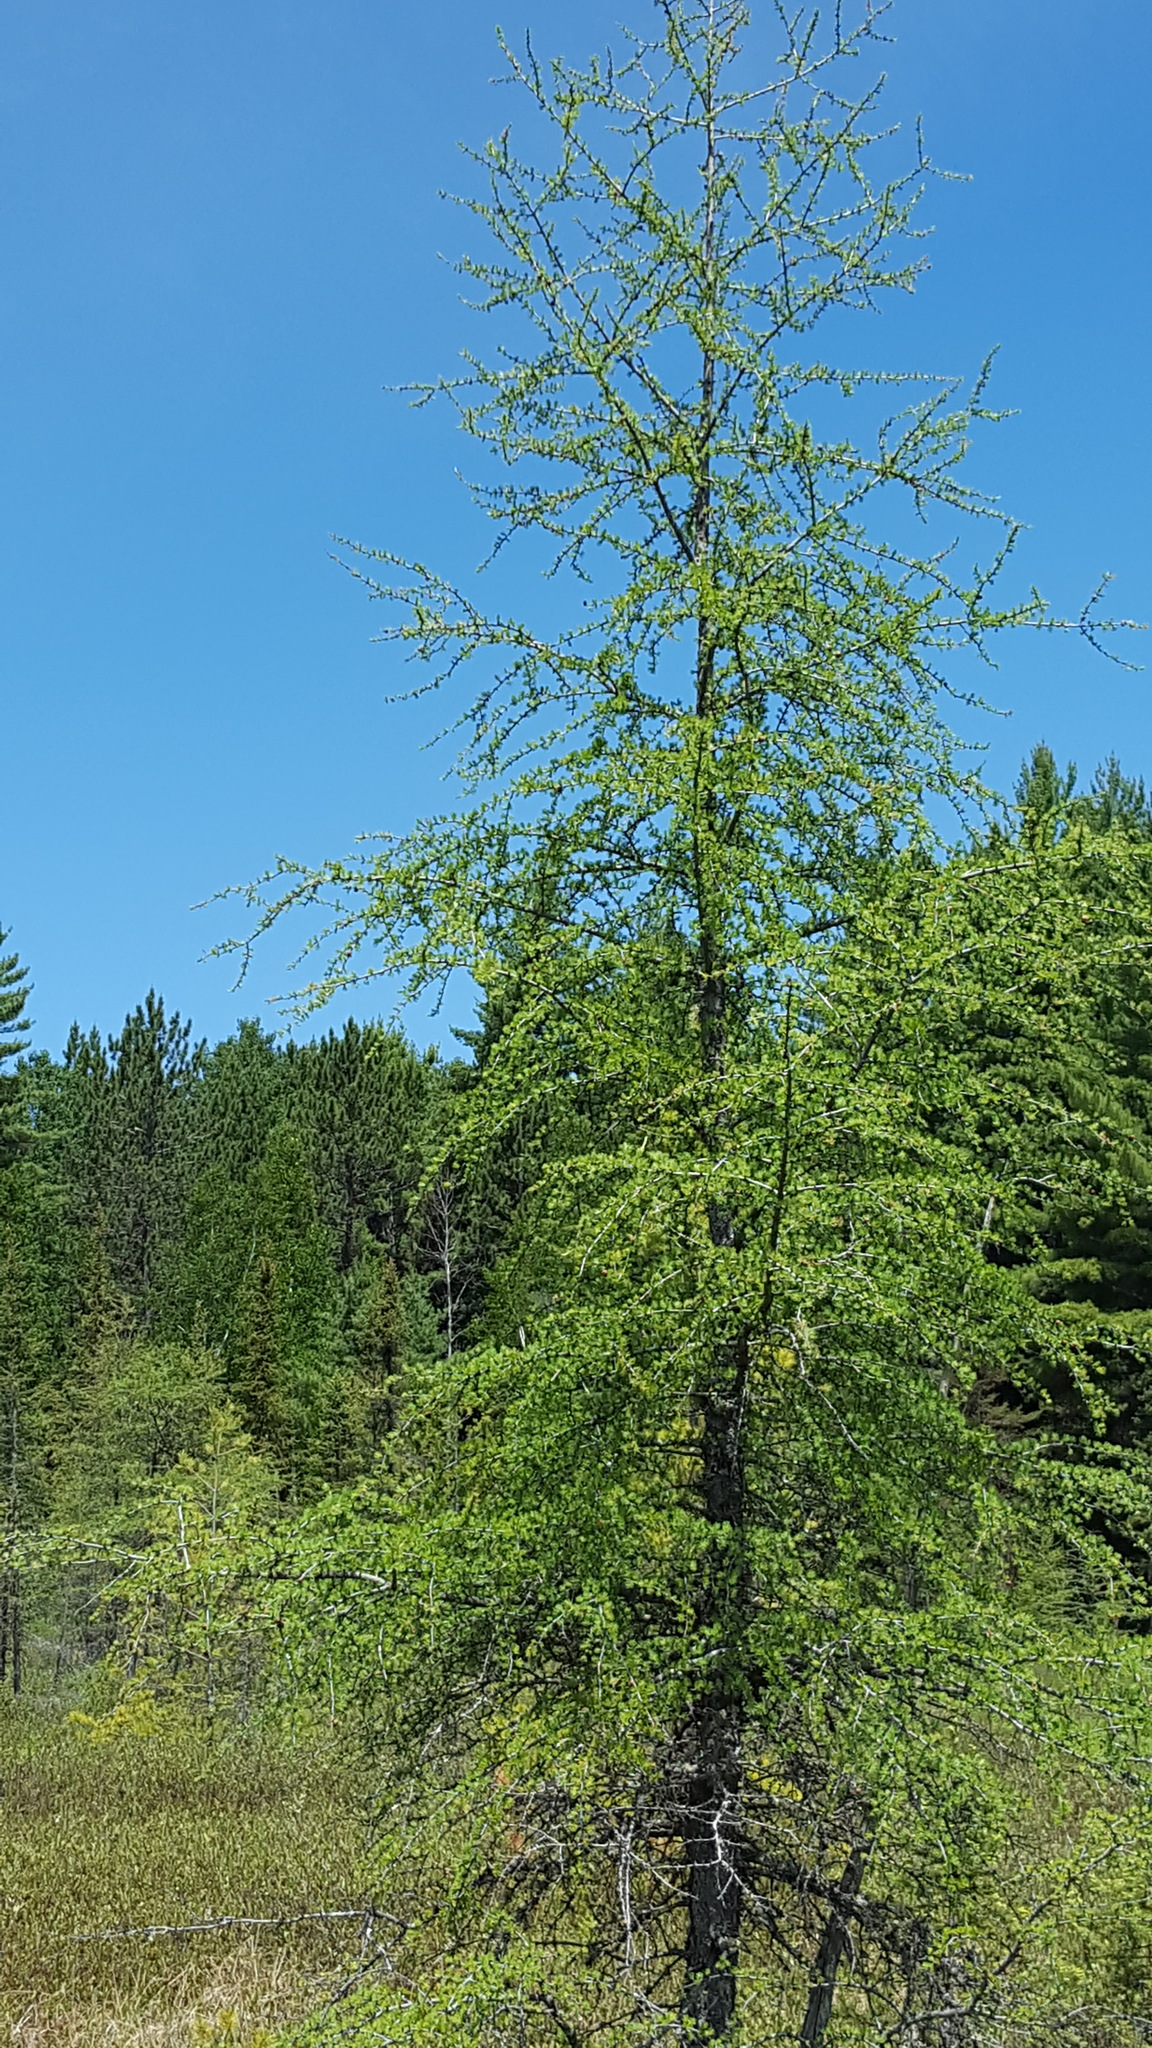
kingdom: Plantae
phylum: Tracheophyta
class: Pinopsida
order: Pinales
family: Pinaceae
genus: Larix
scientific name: Larix laricina
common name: American larch
